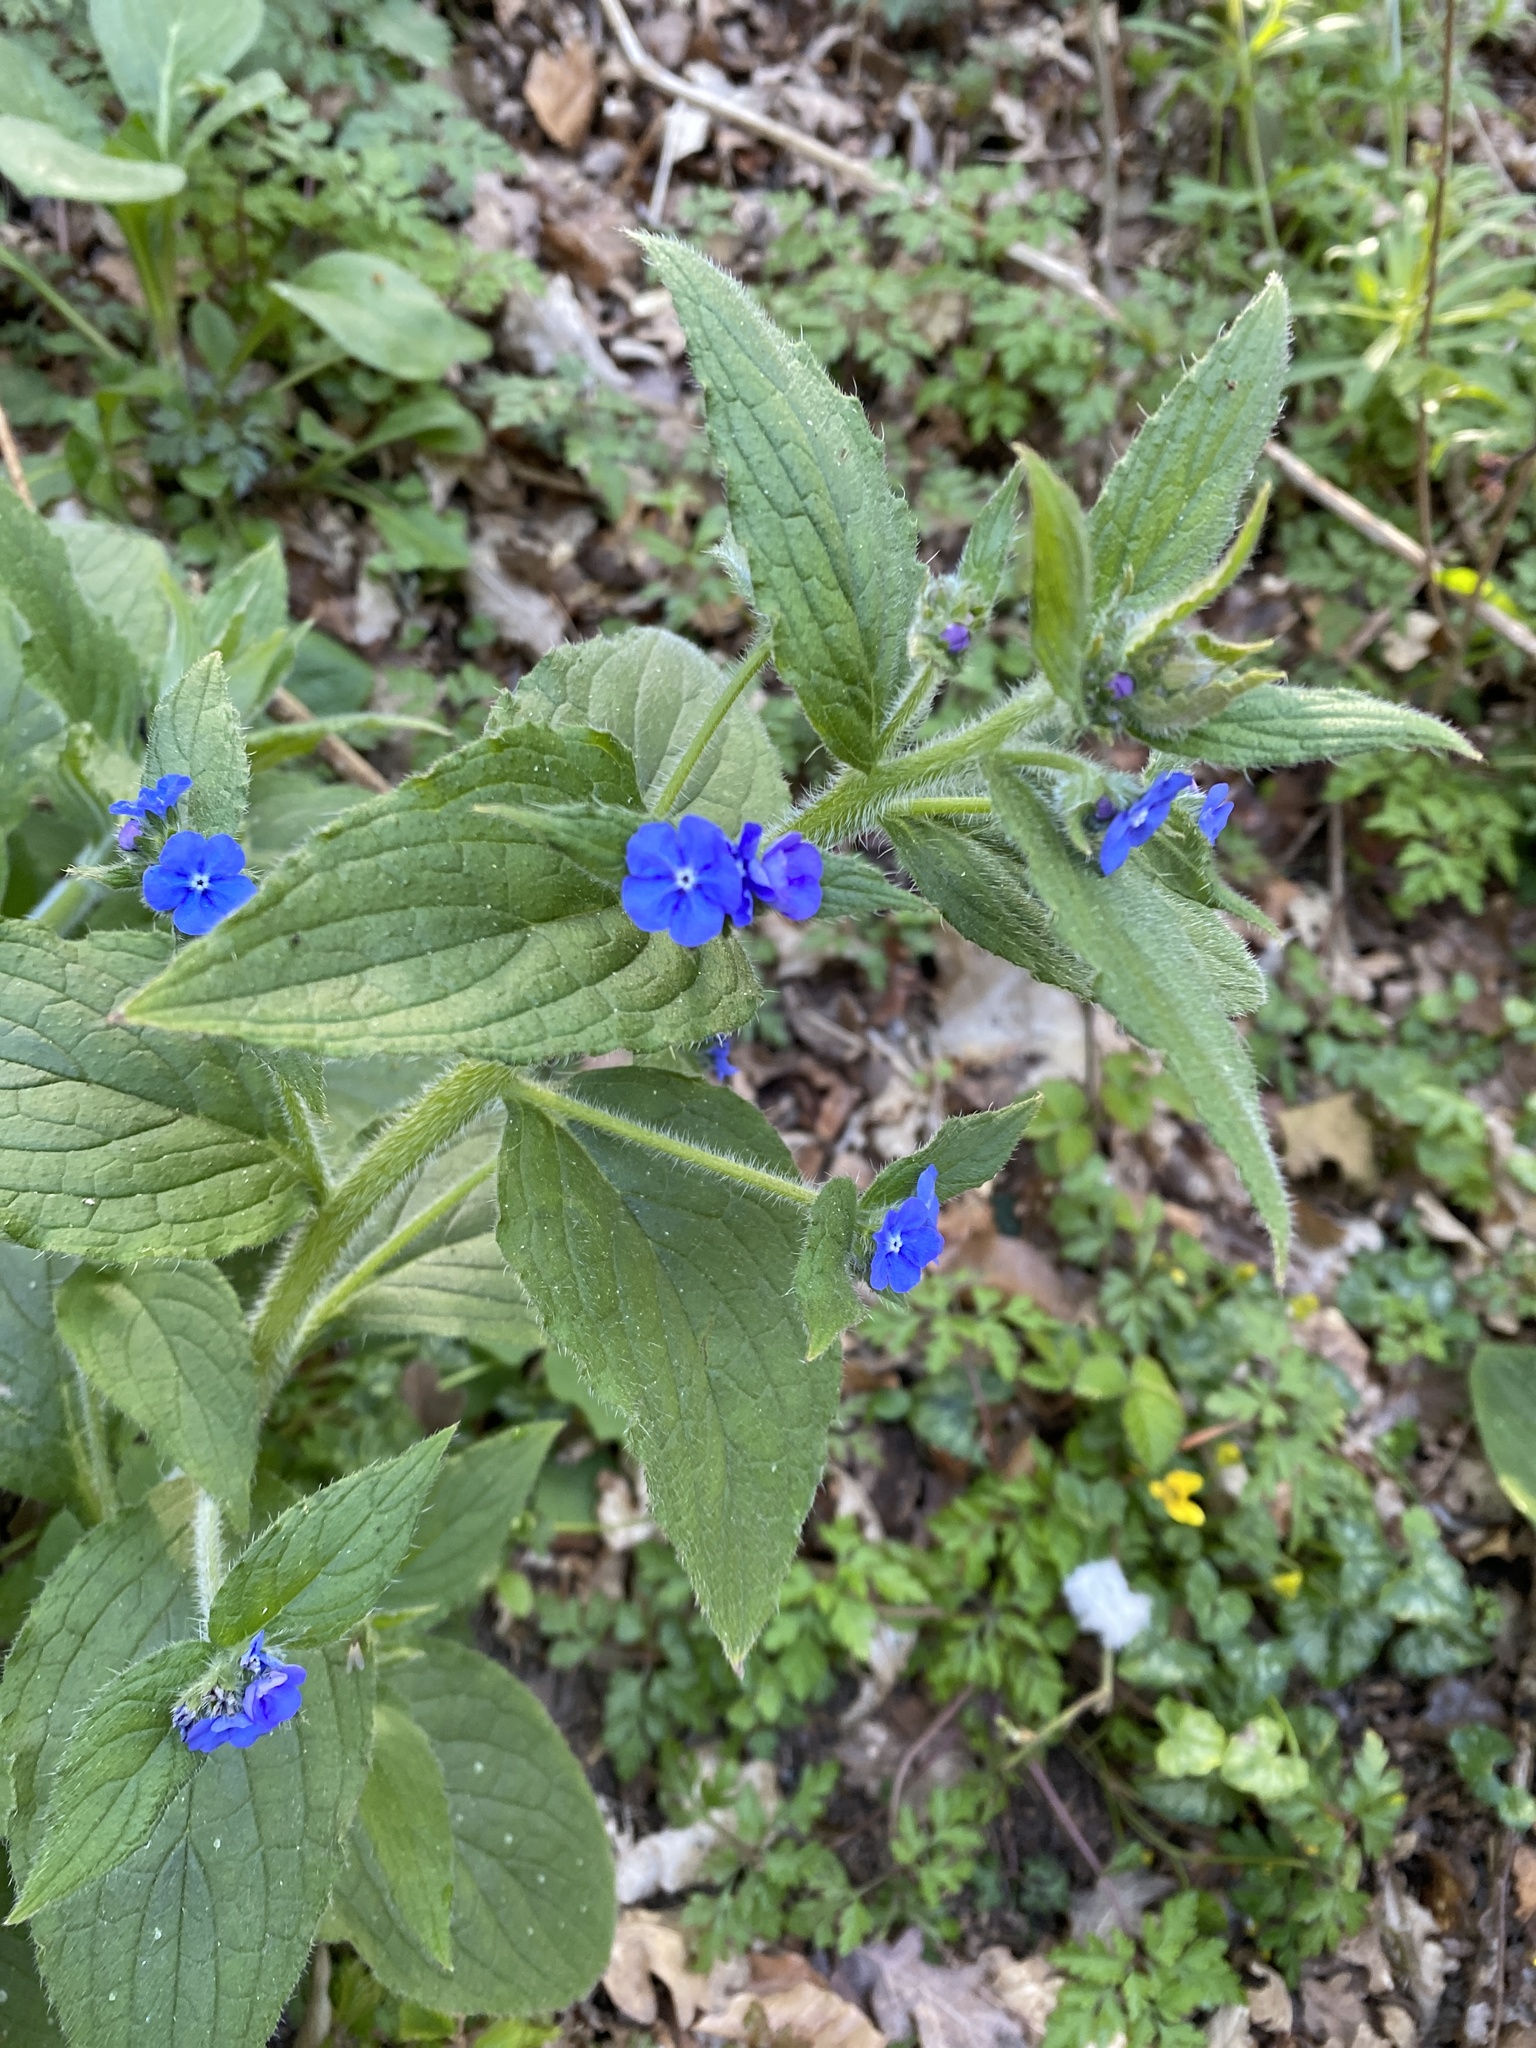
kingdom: Plantae
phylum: Tracheophyta
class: Magnoliopsida
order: Boraginales
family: Boraginaceae
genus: Pentaglottis
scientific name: Pentaglottis sempervirens
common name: Green alkanet
